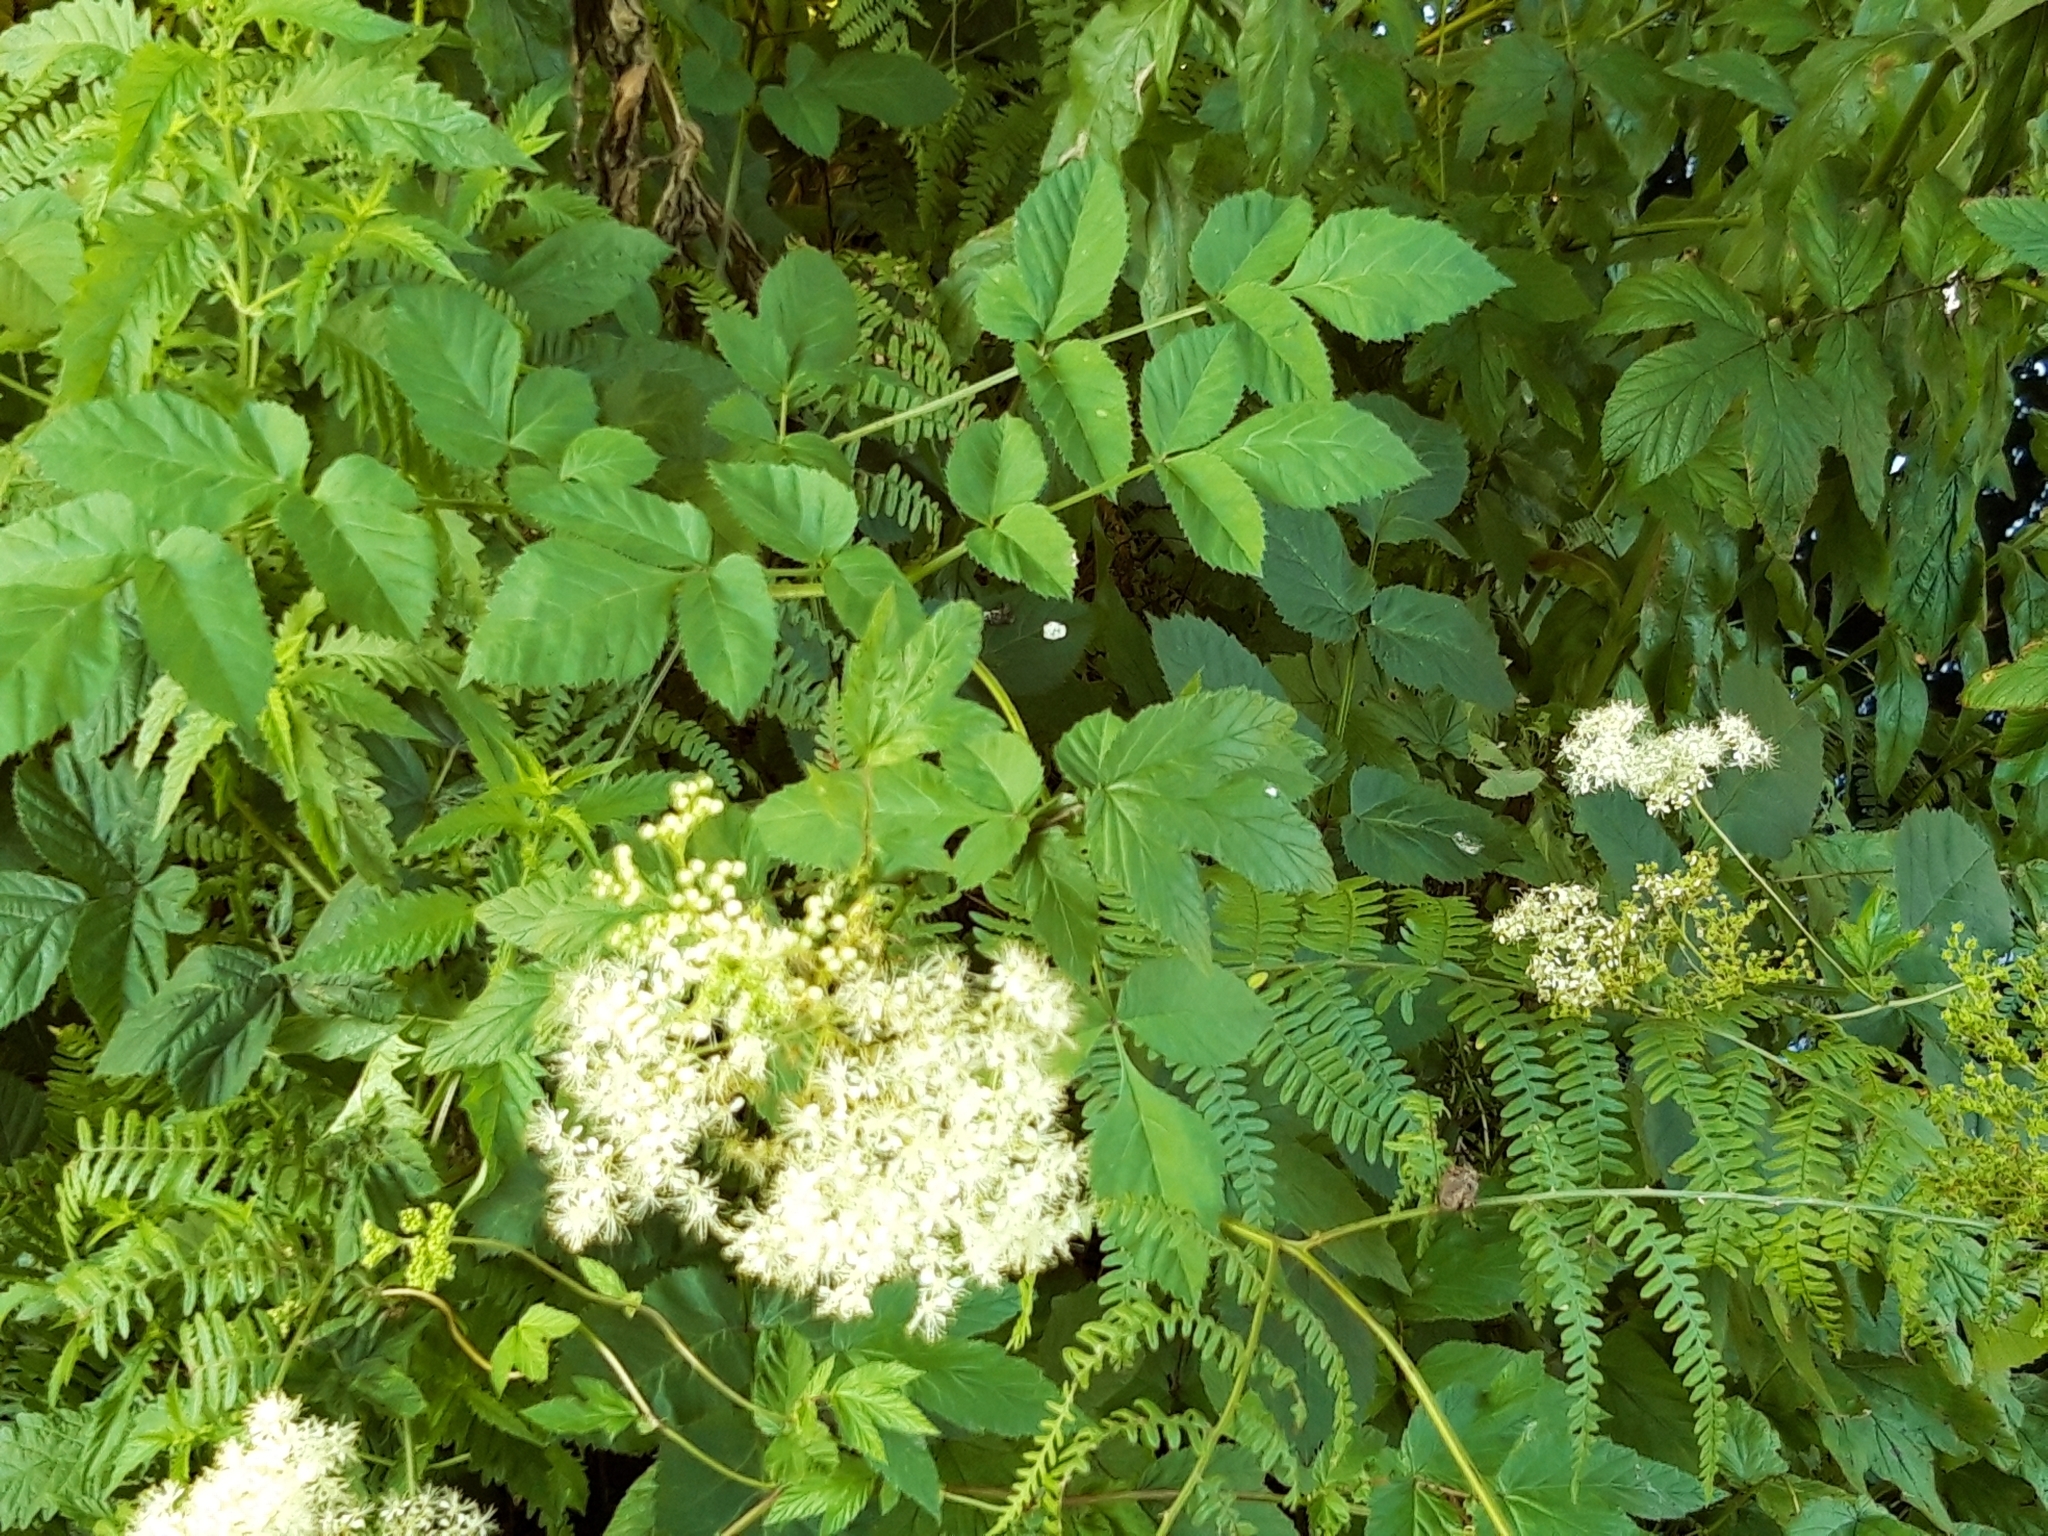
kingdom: Plantae
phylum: Tracheophyta
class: Magnoliopsida
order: Rosales
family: Rosaceae
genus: Filipendula
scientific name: Filipendula ulmaria
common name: Meadowsweet
